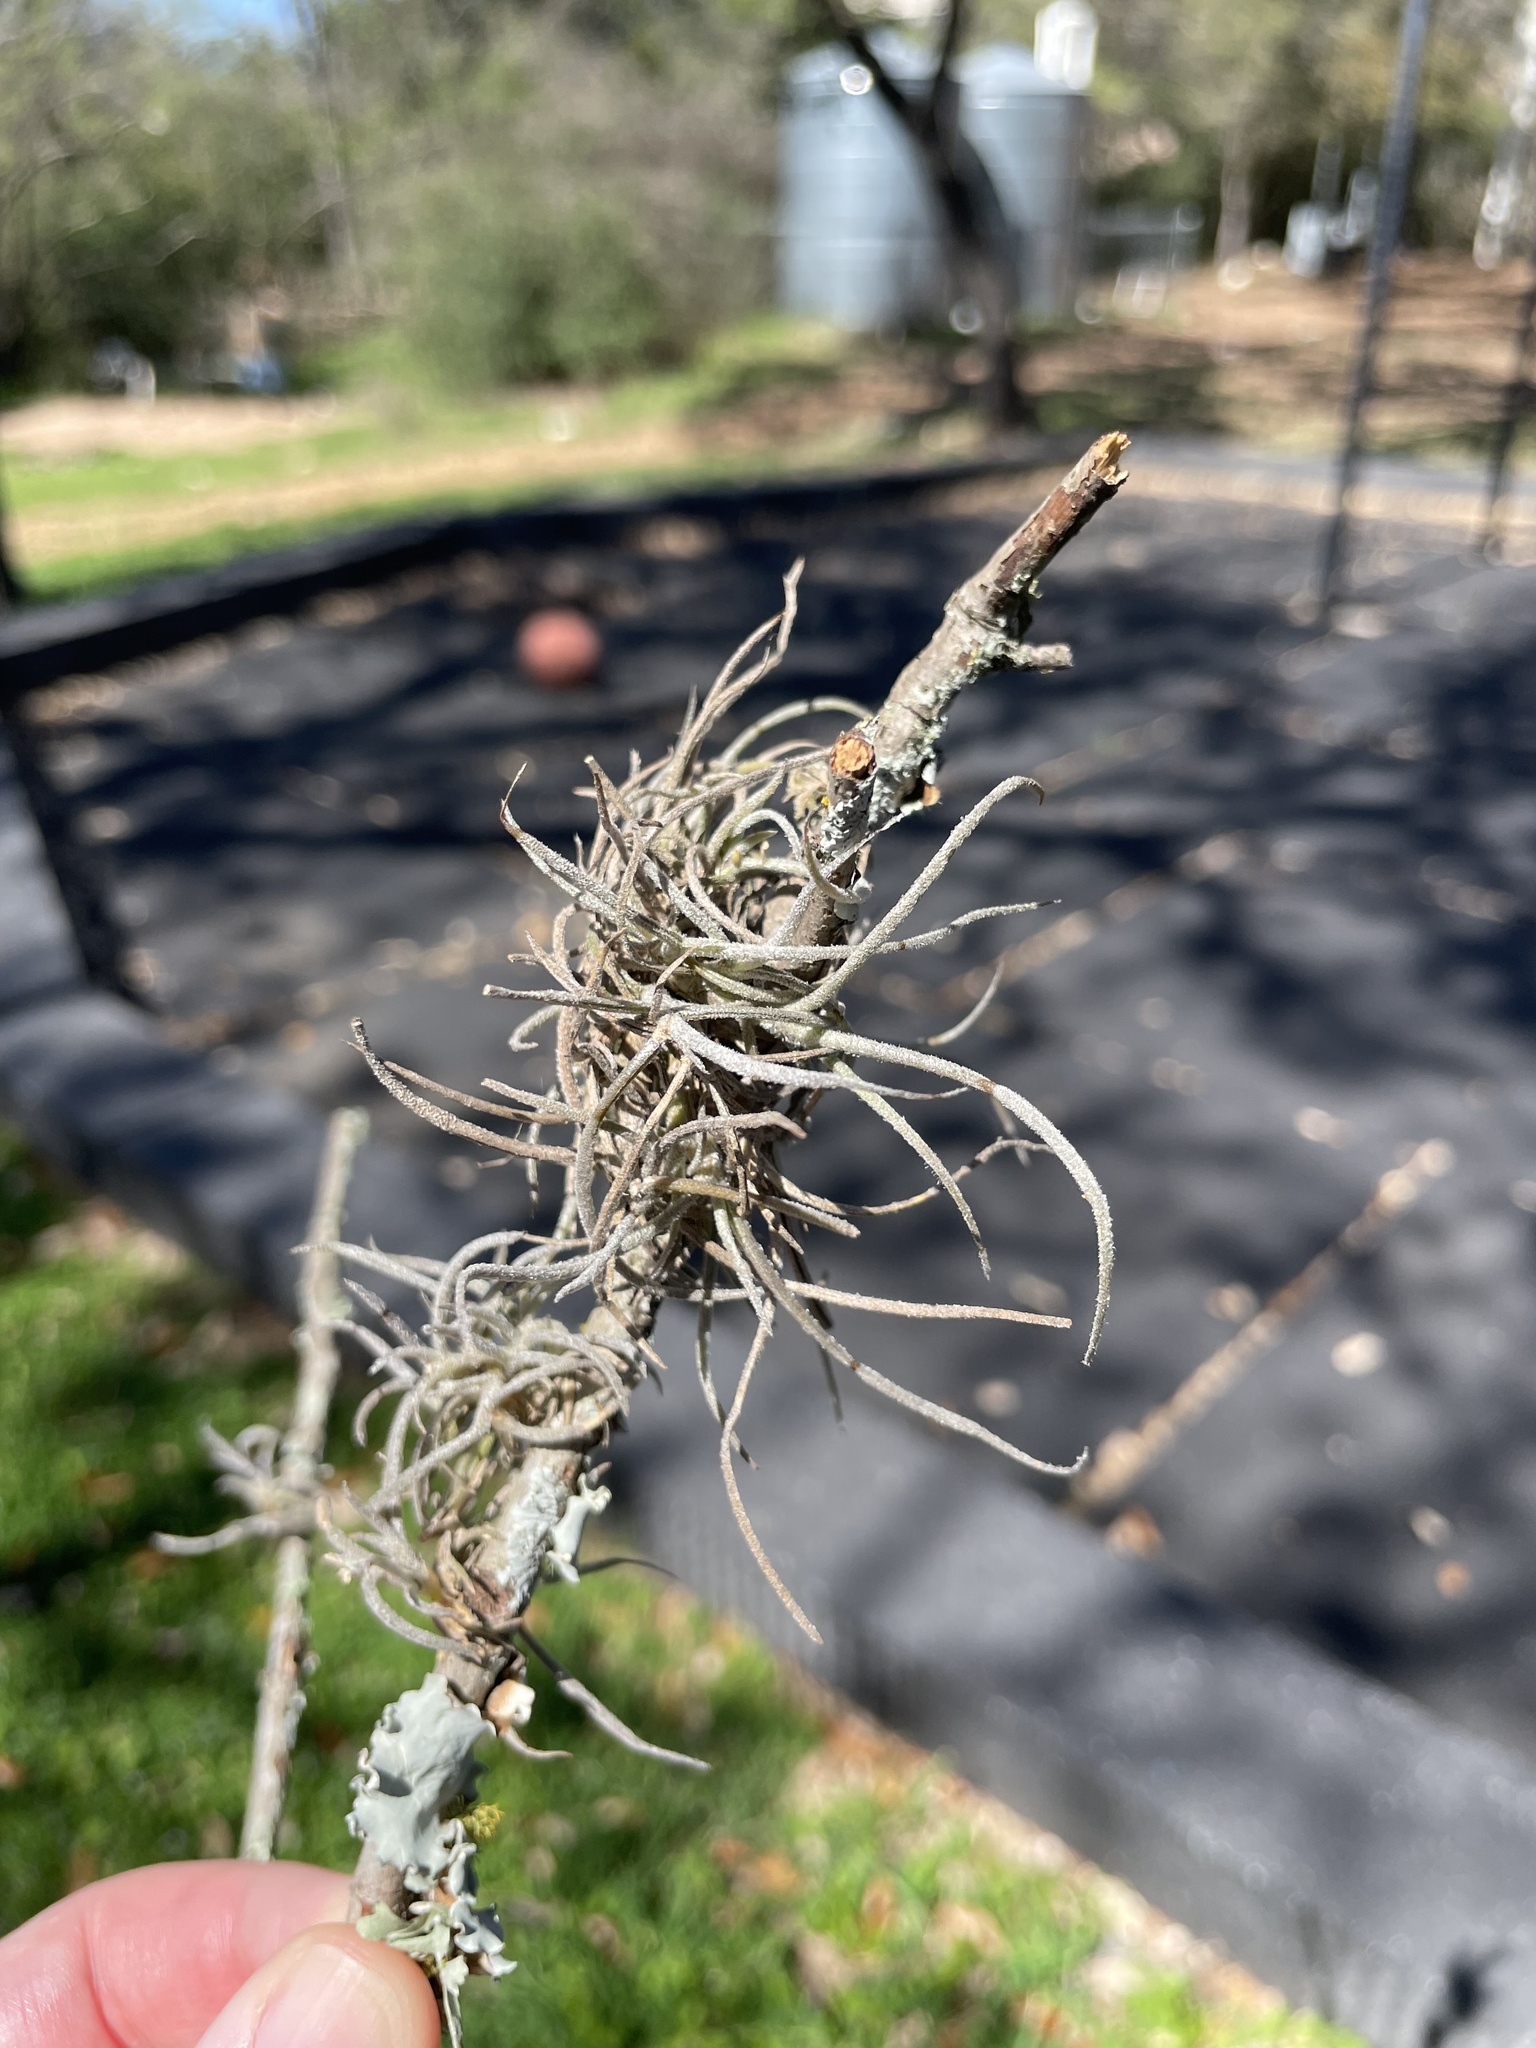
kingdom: Plantae
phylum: Tracheophyta
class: Liliopsida
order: Poales
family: Bromeliaceae
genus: Tillandsia
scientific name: Tillandsia recurvata
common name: Small ballmoss
